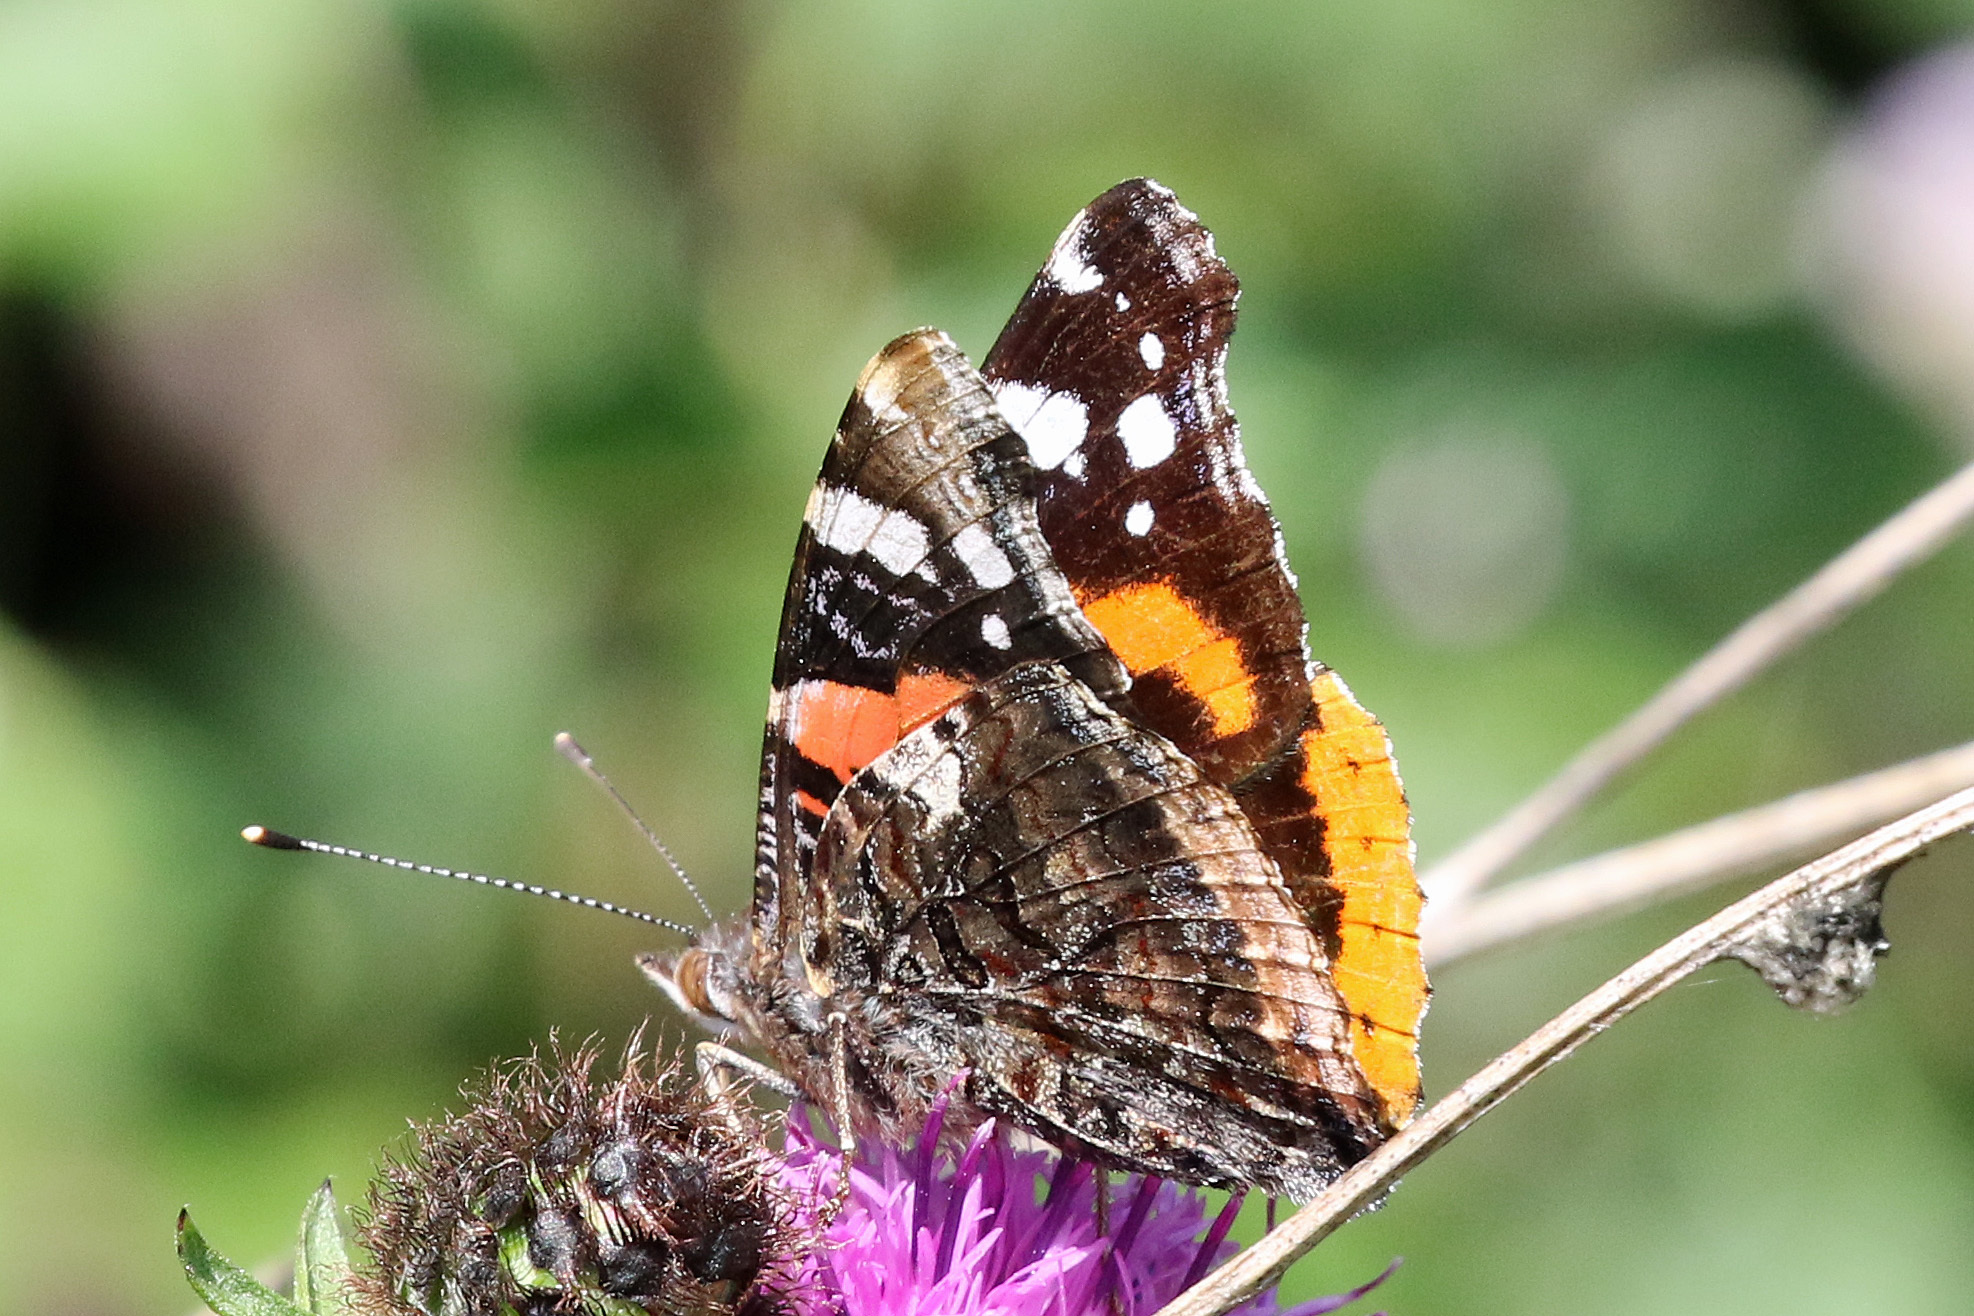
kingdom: Animalia
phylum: Arthropoda
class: Insecta
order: Lepidoptera
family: Nymphalidae
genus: Vanessa
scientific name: Vanessa atalanta
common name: Red admiral
